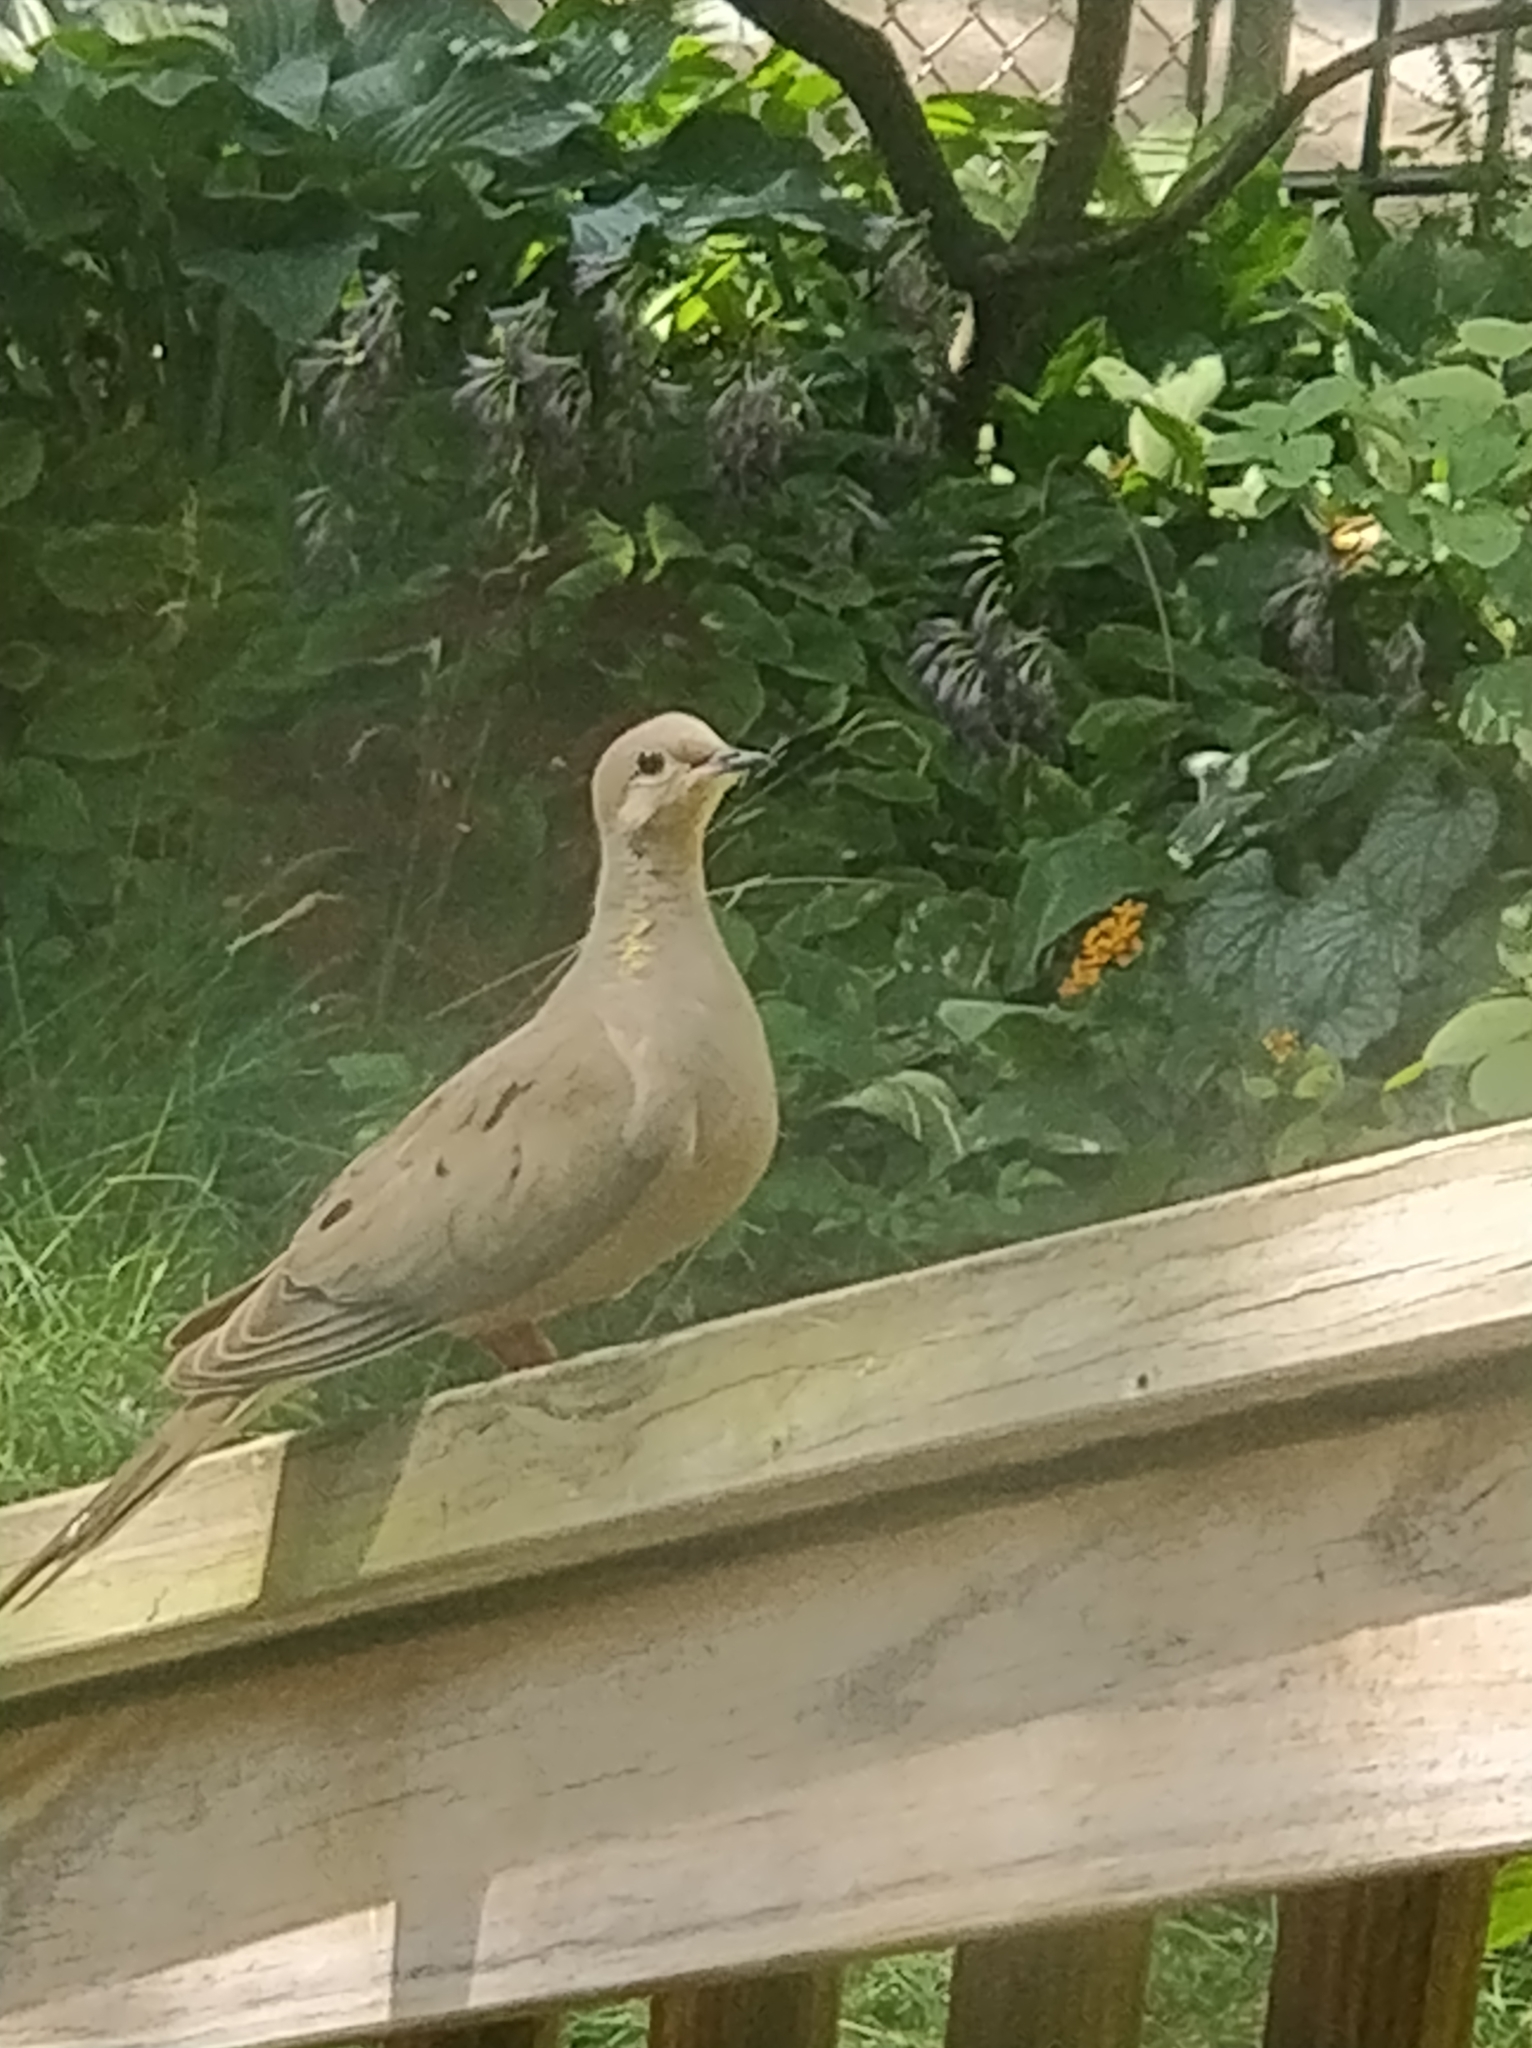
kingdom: Animalia
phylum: Chordata
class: Aves
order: Columbiformes
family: Columbidae
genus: Zenaida
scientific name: Zenaida macroura
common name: Mourning dove
